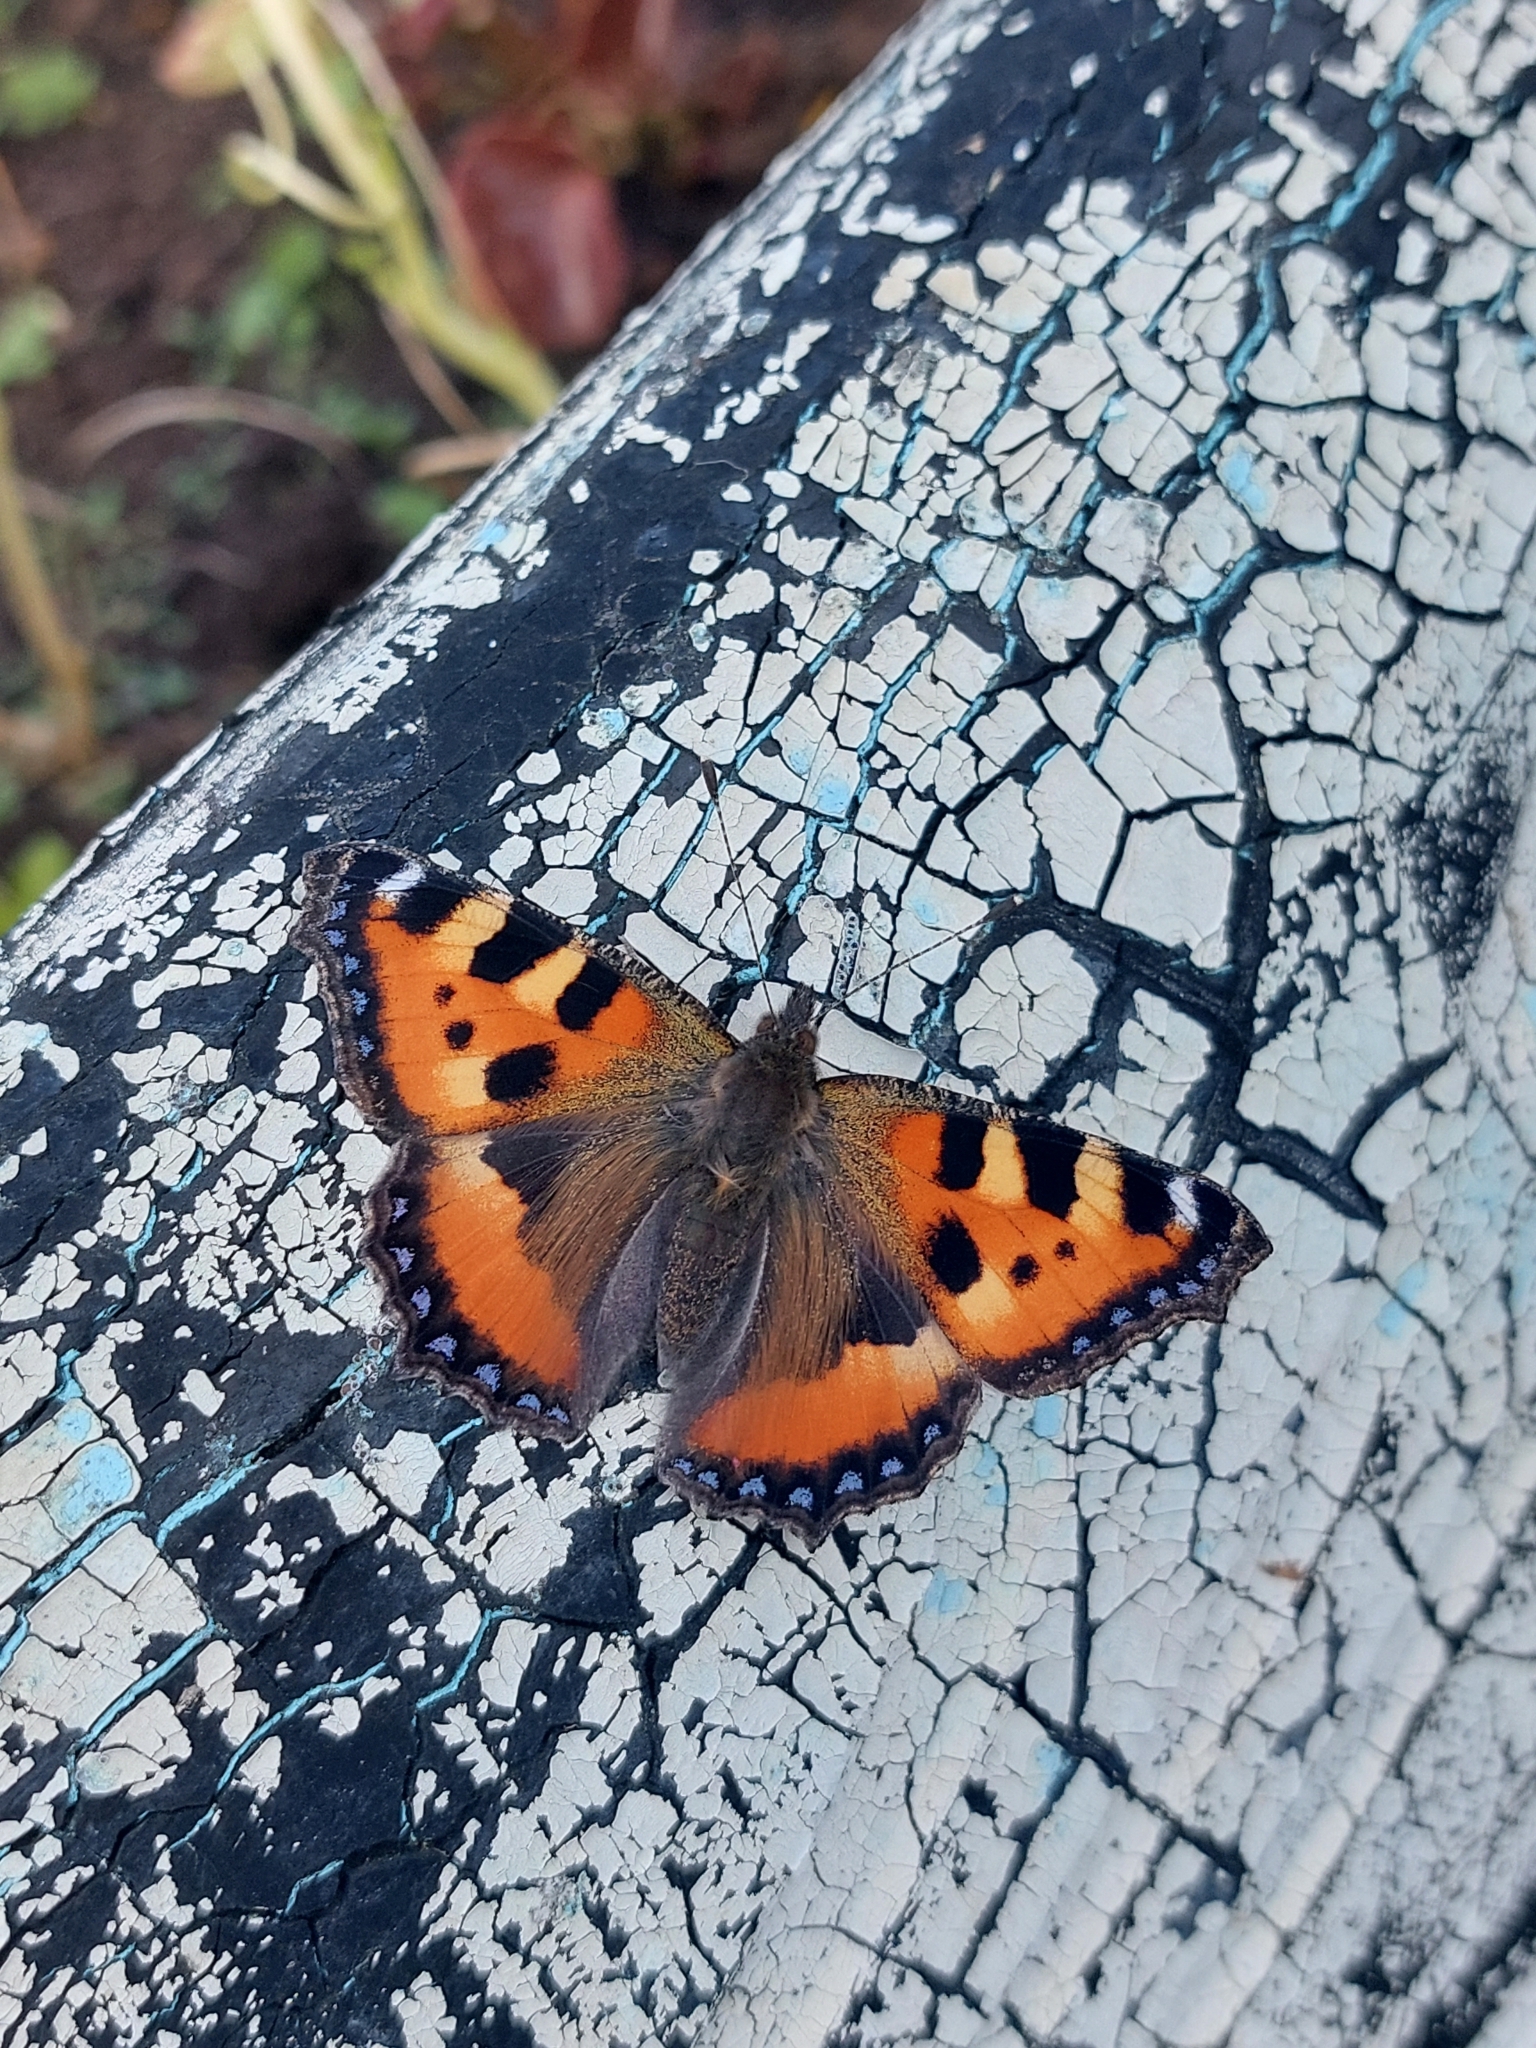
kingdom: Animalia
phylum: Arthropoda
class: Insecta
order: Lepidoptera
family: Nymphalidae
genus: Aglais
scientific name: Aglais urticae
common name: Small tortoiseshell
